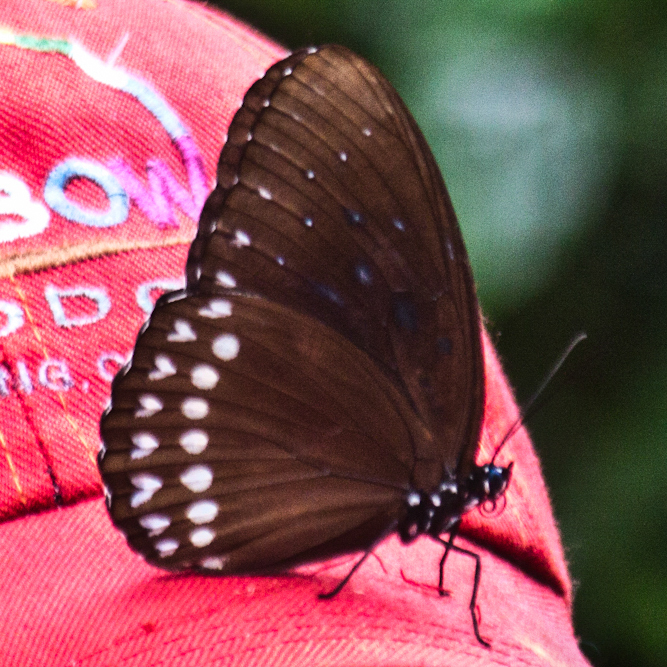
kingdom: Animalia
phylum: Arthropoda
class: Insecta
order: Lepidoptera
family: Nymphalidae
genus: Penthema
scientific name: Penthema darlisa
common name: Three-coloured kaiser
